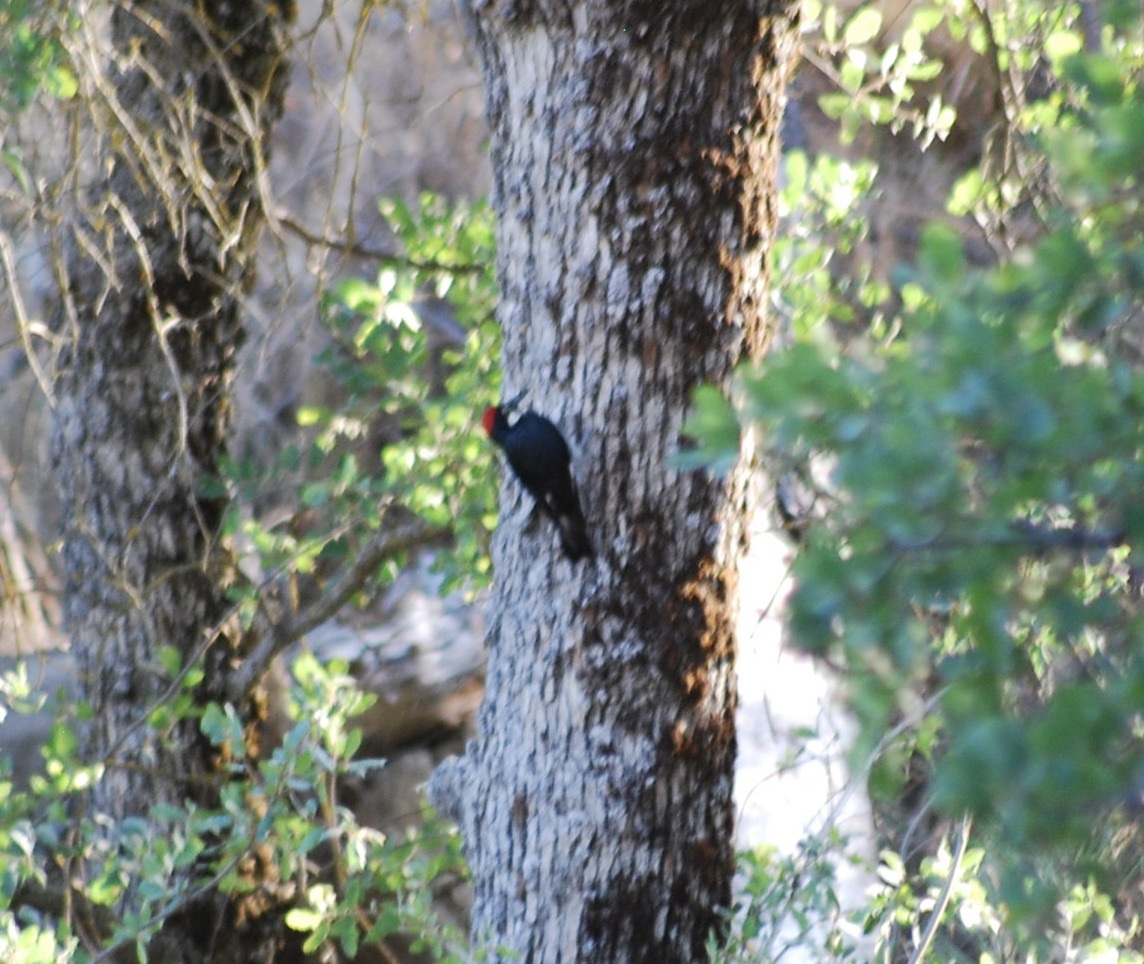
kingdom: Animalia
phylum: Chordata
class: Aves
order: Piciformes
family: Picidae
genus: Melanerpes
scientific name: Melanerpes formicivorus
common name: Acorn woodpecker
